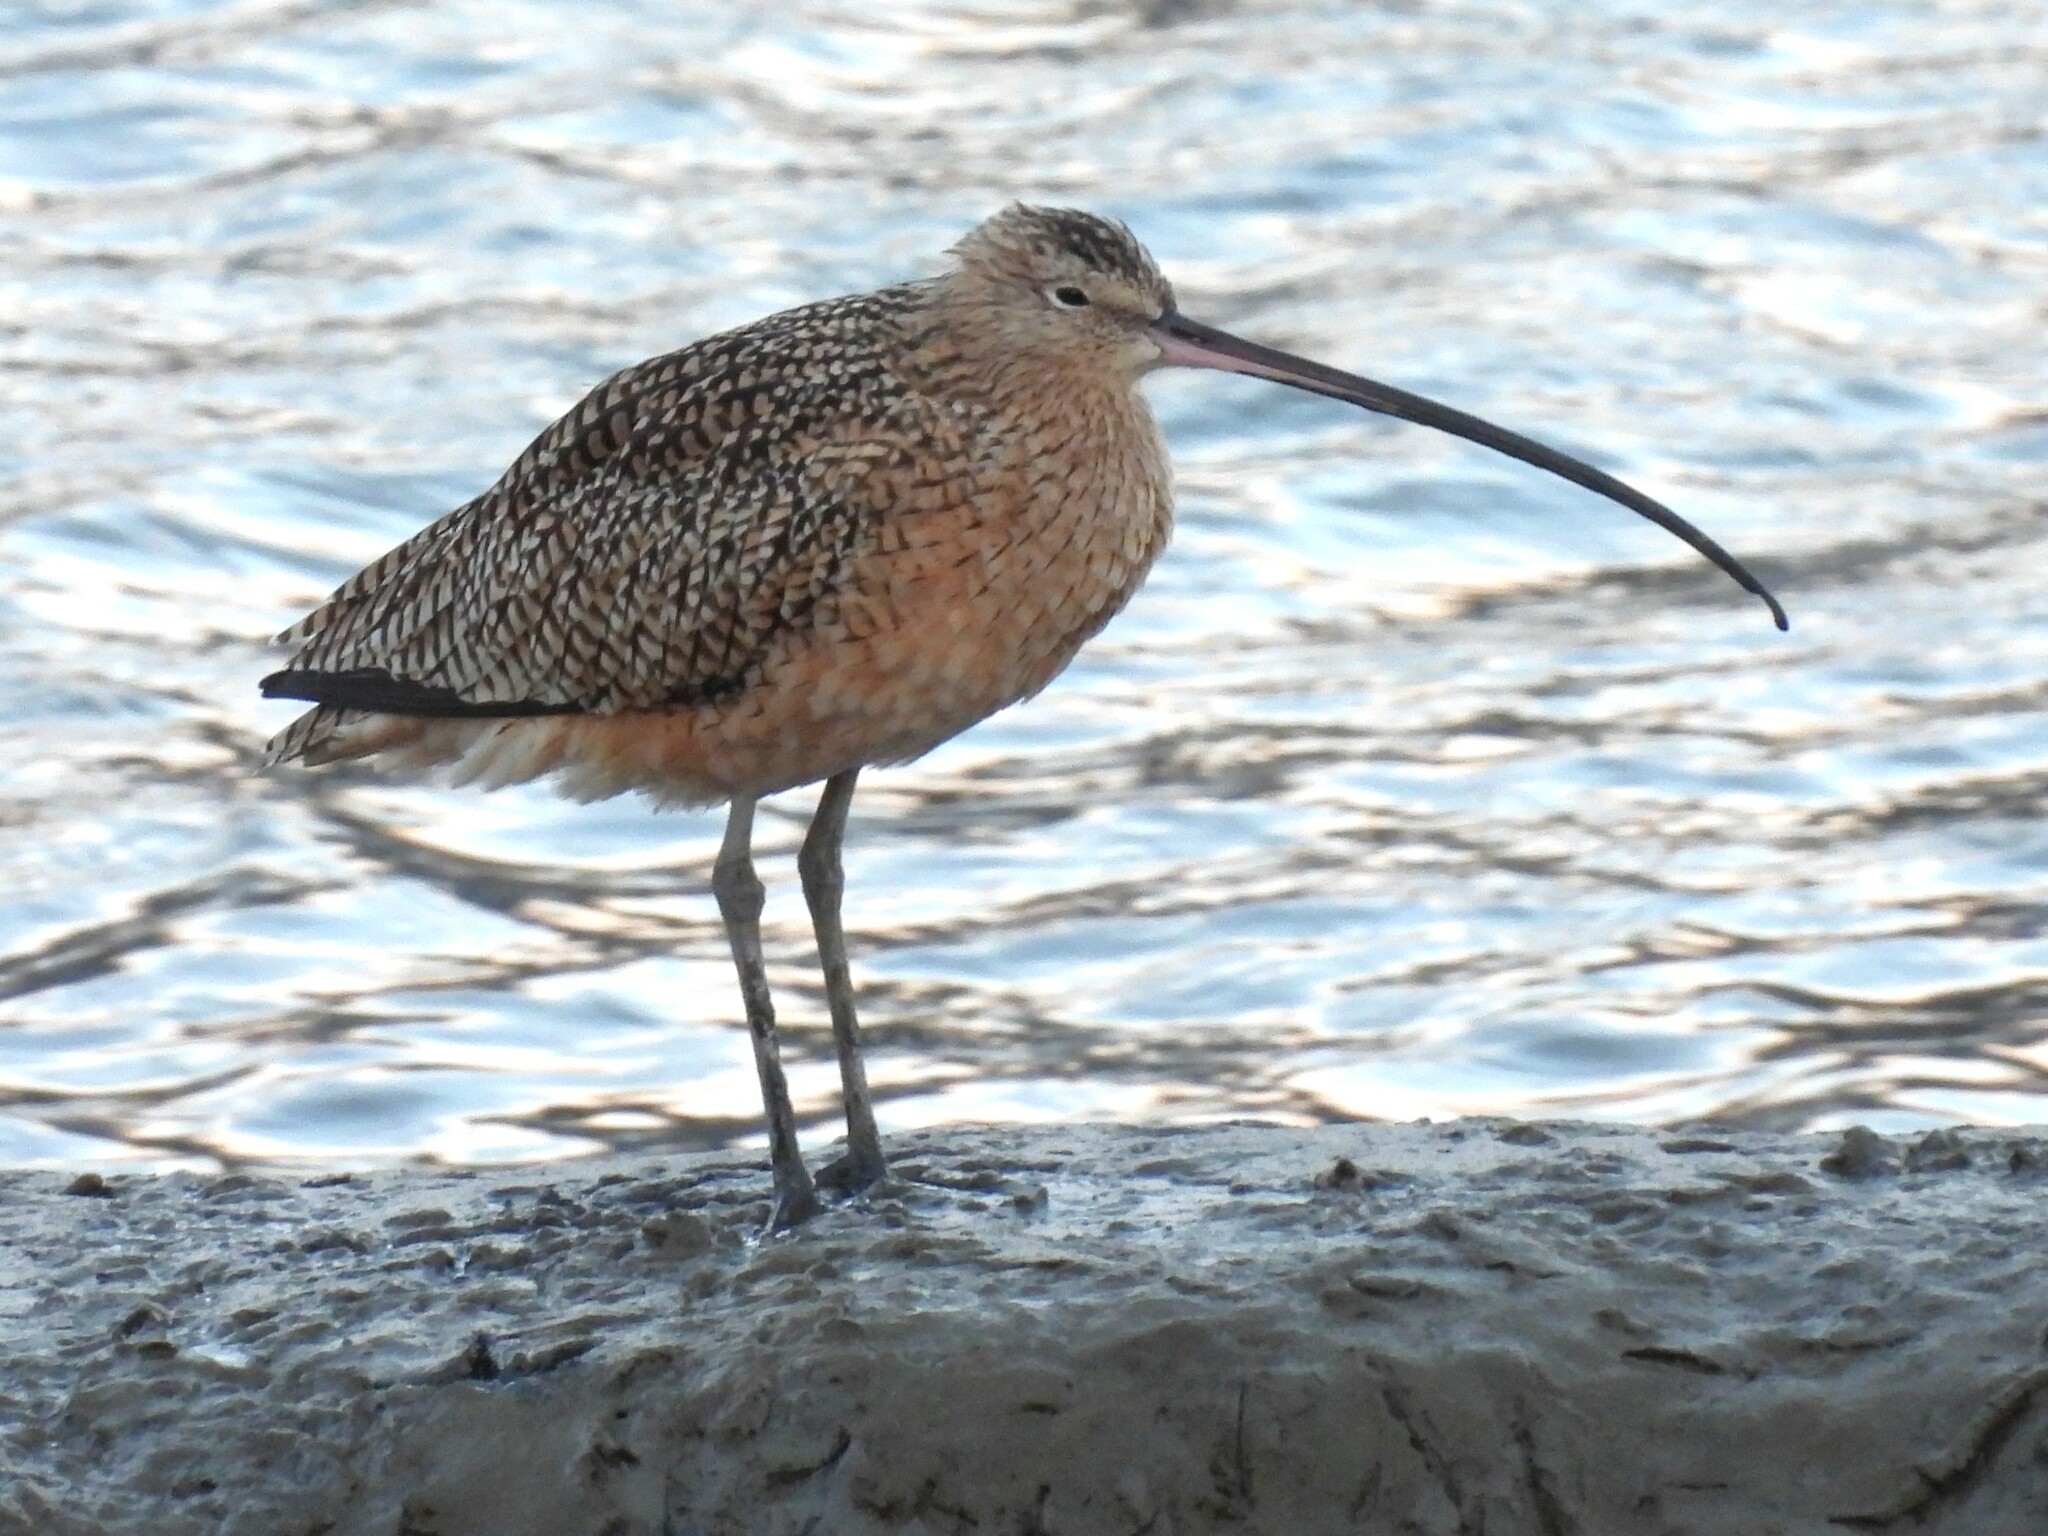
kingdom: Animalia
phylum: Chordata
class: Aves
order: Charadriiformes
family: Scolopacidae
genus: Numenius
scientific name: Numenius americanus
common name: Long-billed curlew
